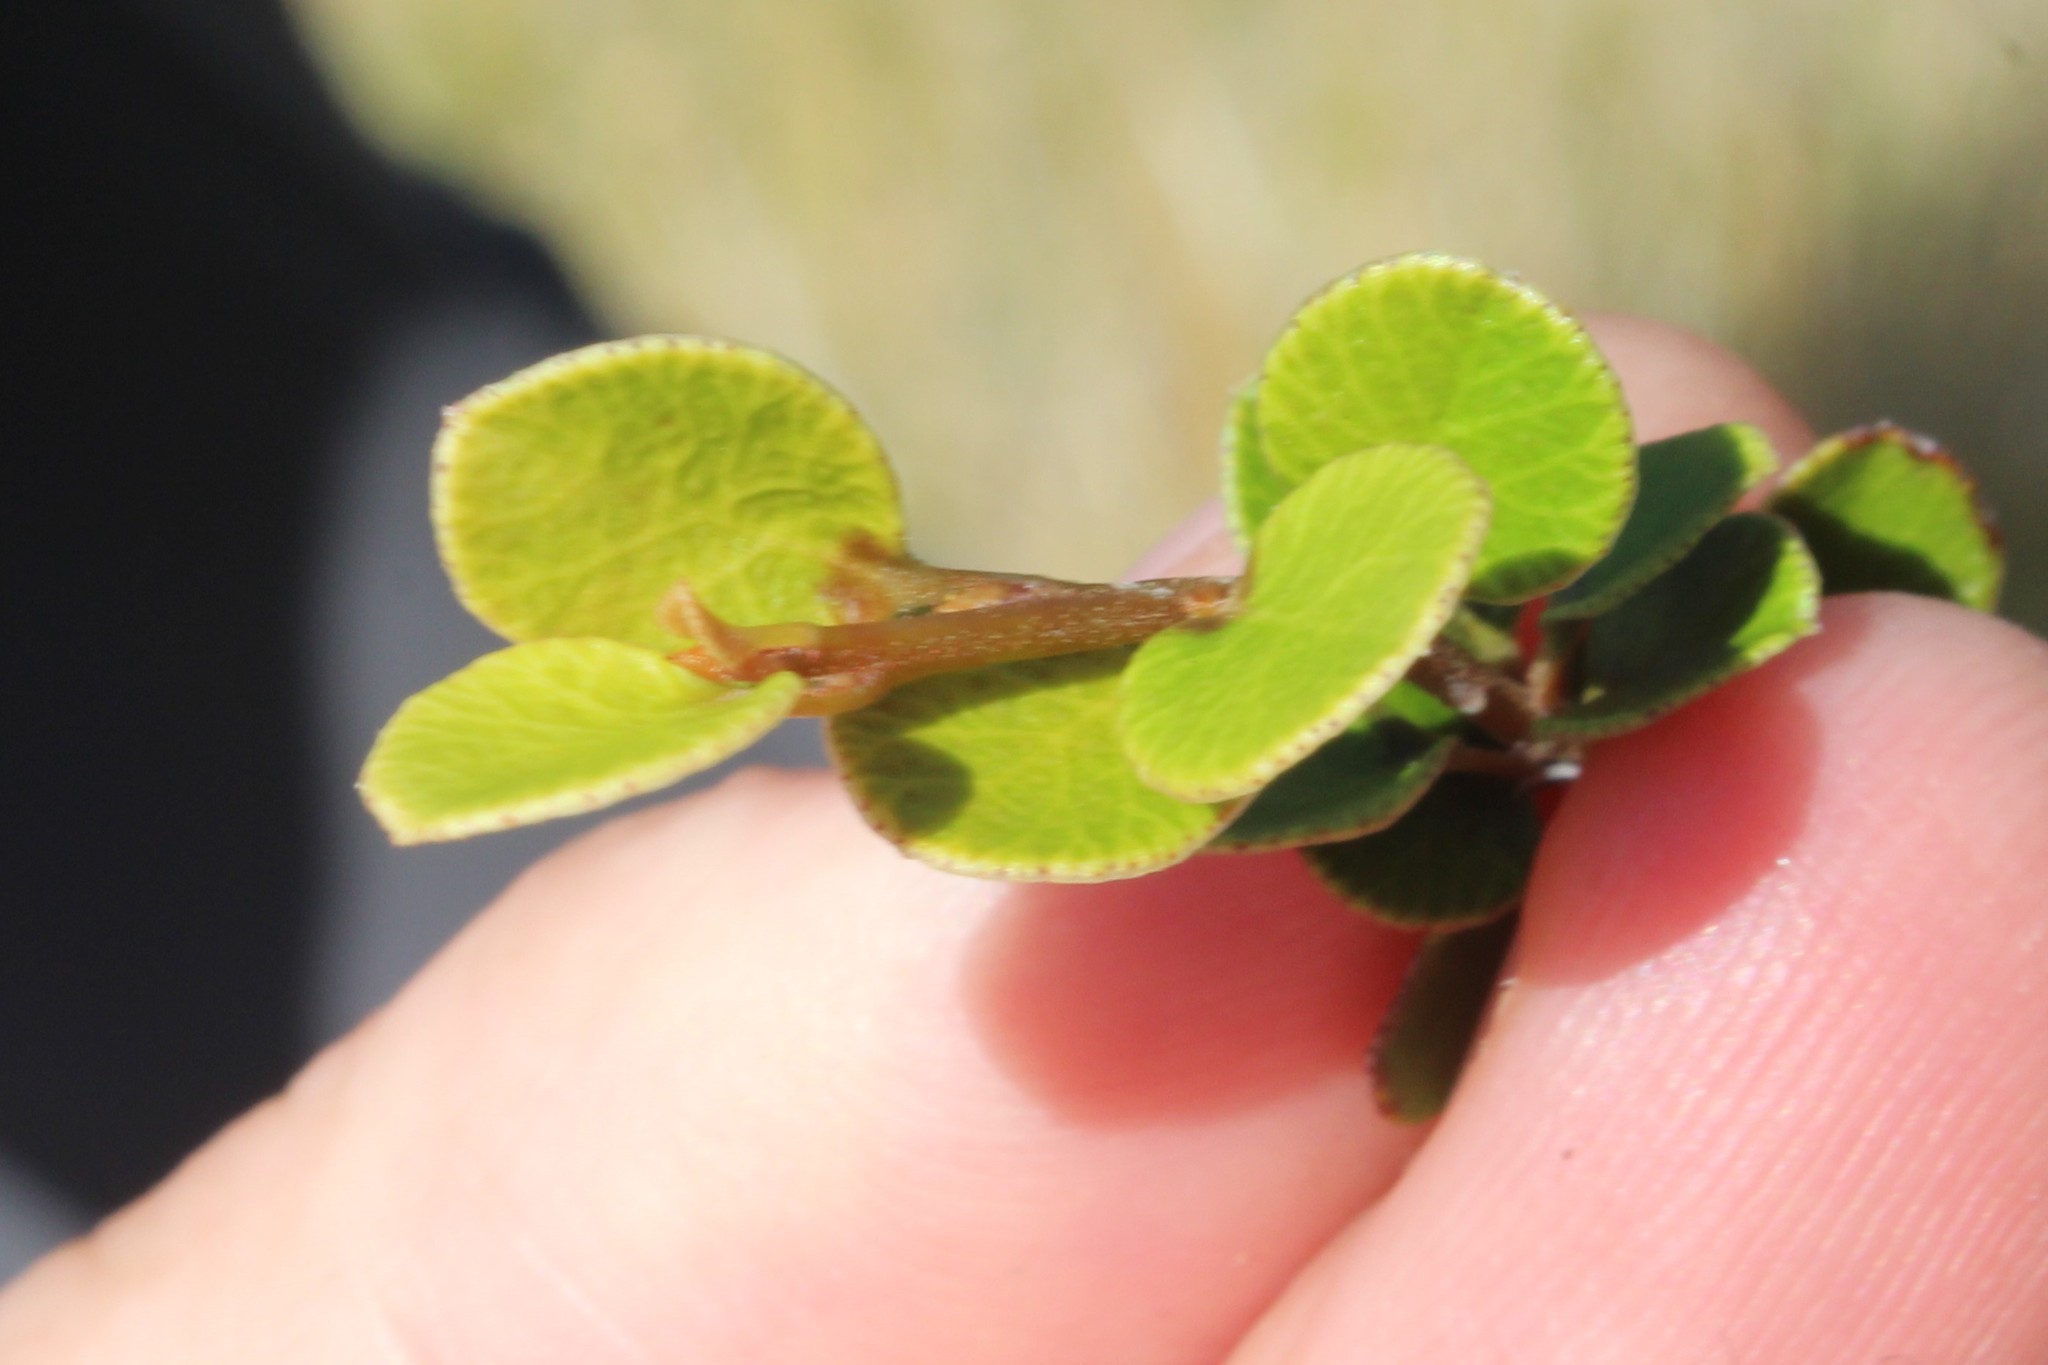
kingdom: Plantae
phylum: Tracheophyta
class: Magnoliopsida
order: Ericales
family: Primulaceae
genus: Myrsine
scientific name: Myrsine nummularia
